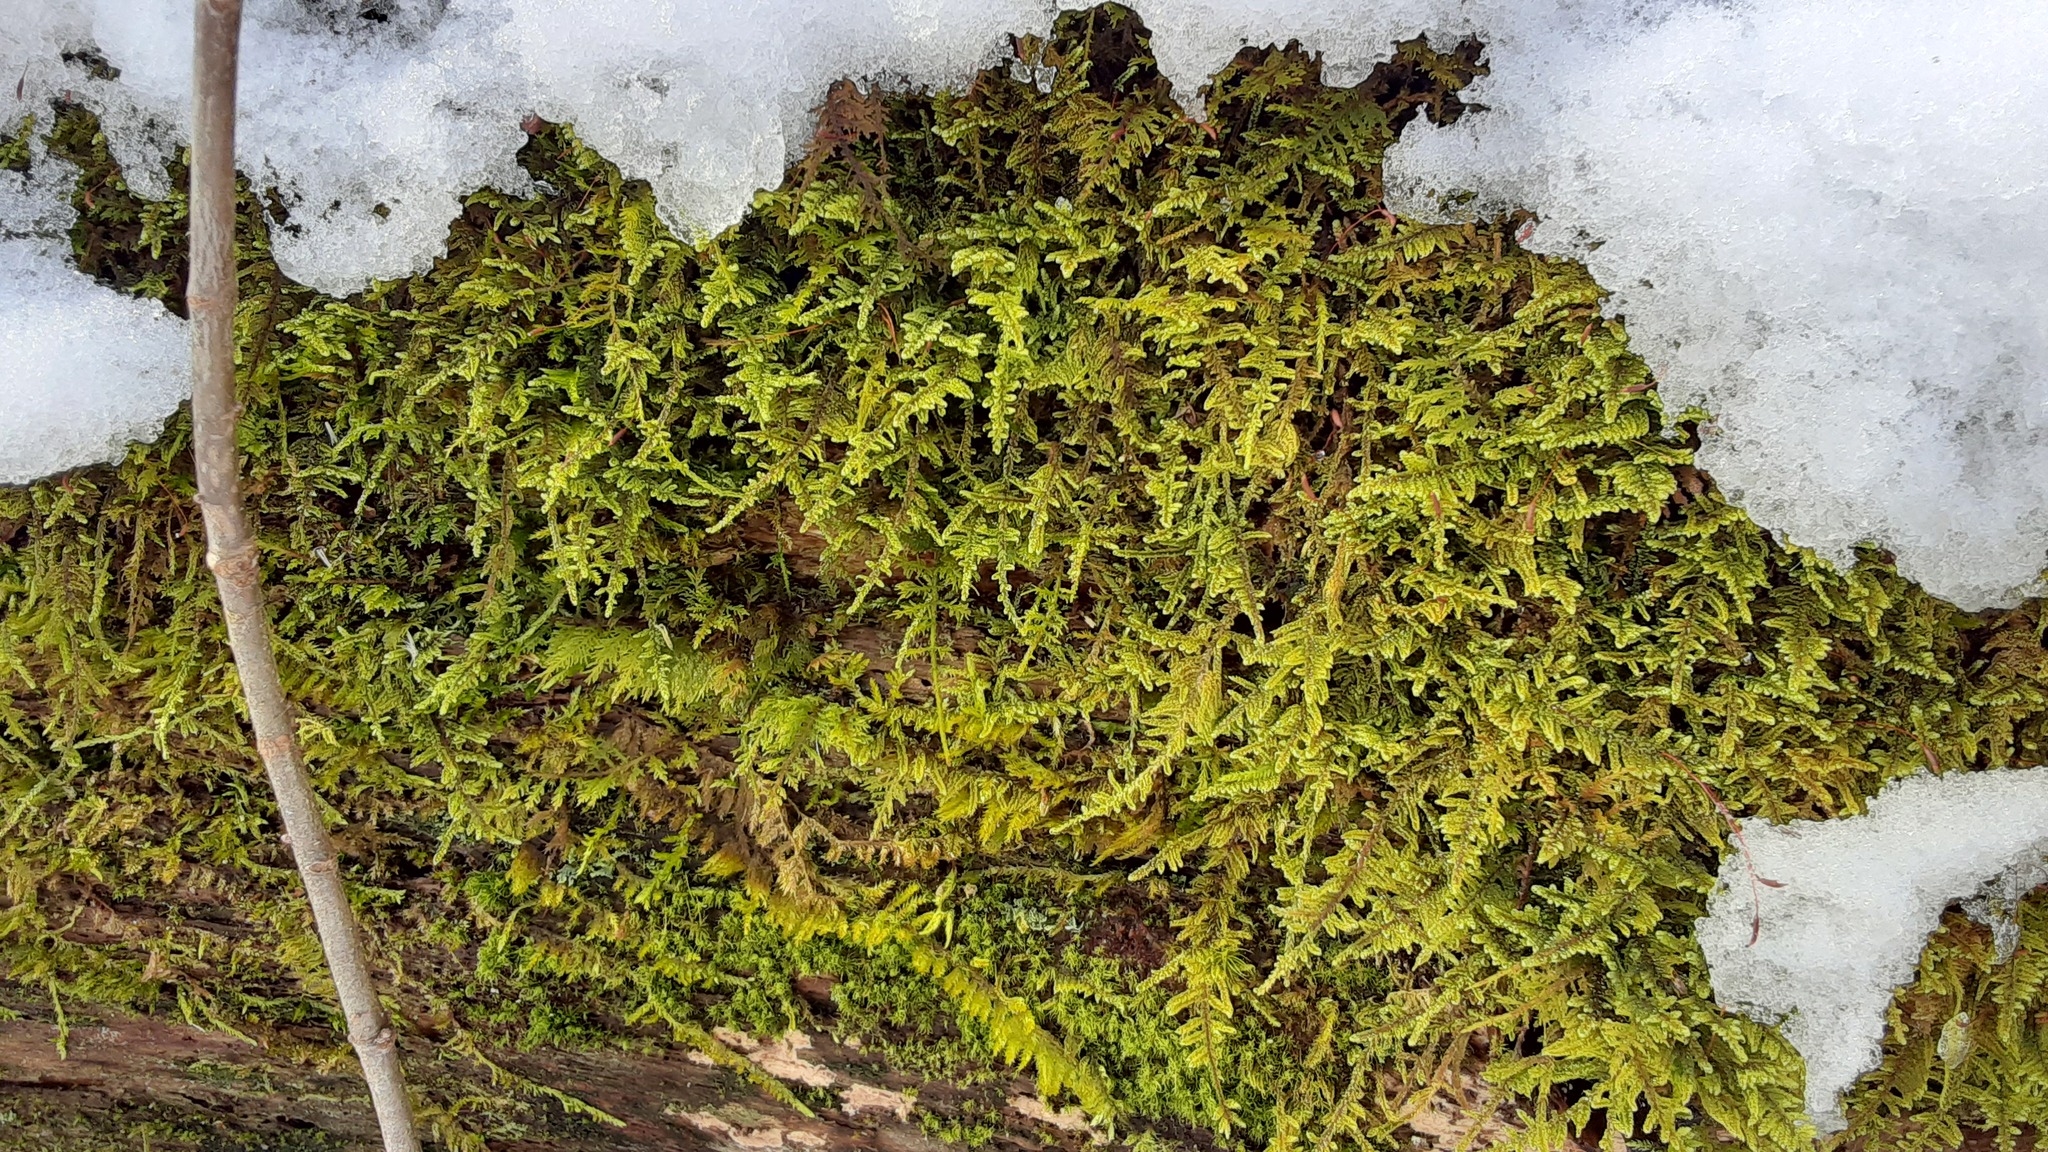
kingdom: Plantae
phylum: Bryophyta
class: Bryopsida
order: Hypnales
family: Callicladiaceae
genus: Callicladium
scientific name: Callicladium imponens
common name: Brocade moss
